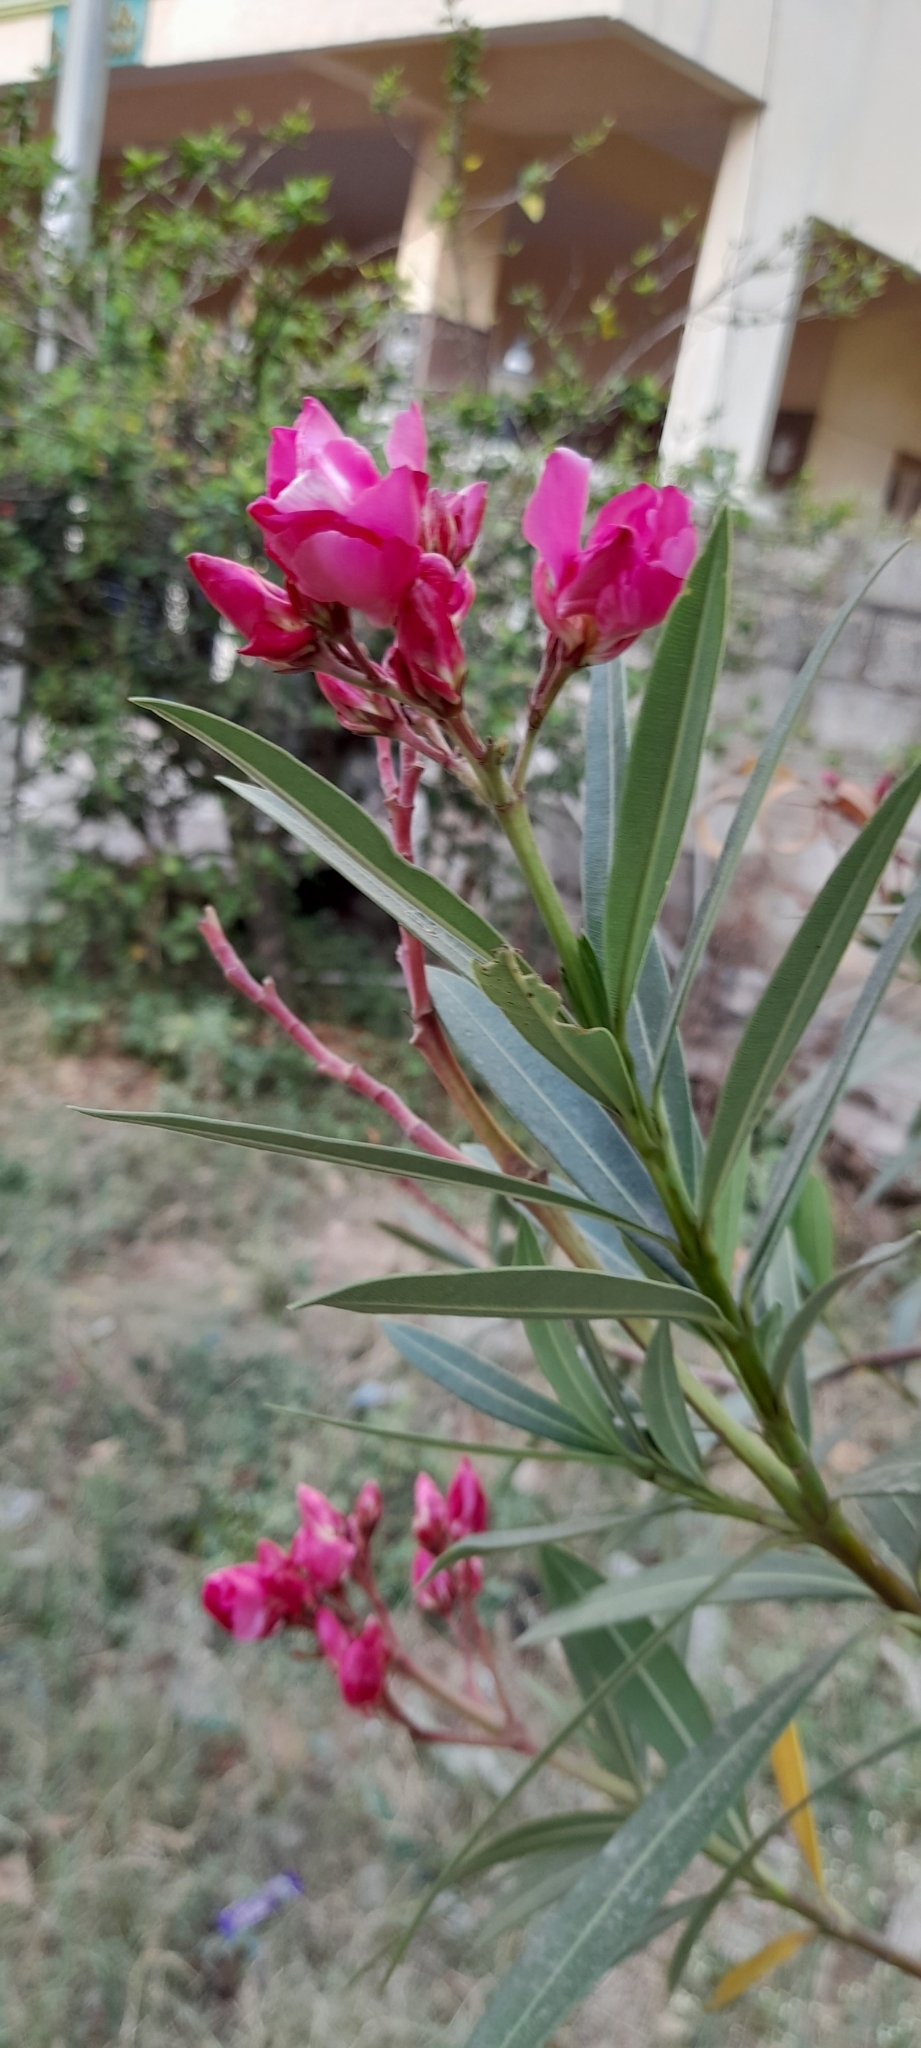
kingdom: Plantae
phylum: Tracheophyta
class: Magnoliopsida
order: Gentianales
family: Apocynaceae
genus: Nerium
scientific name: Nerium oleander
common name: Oleander
